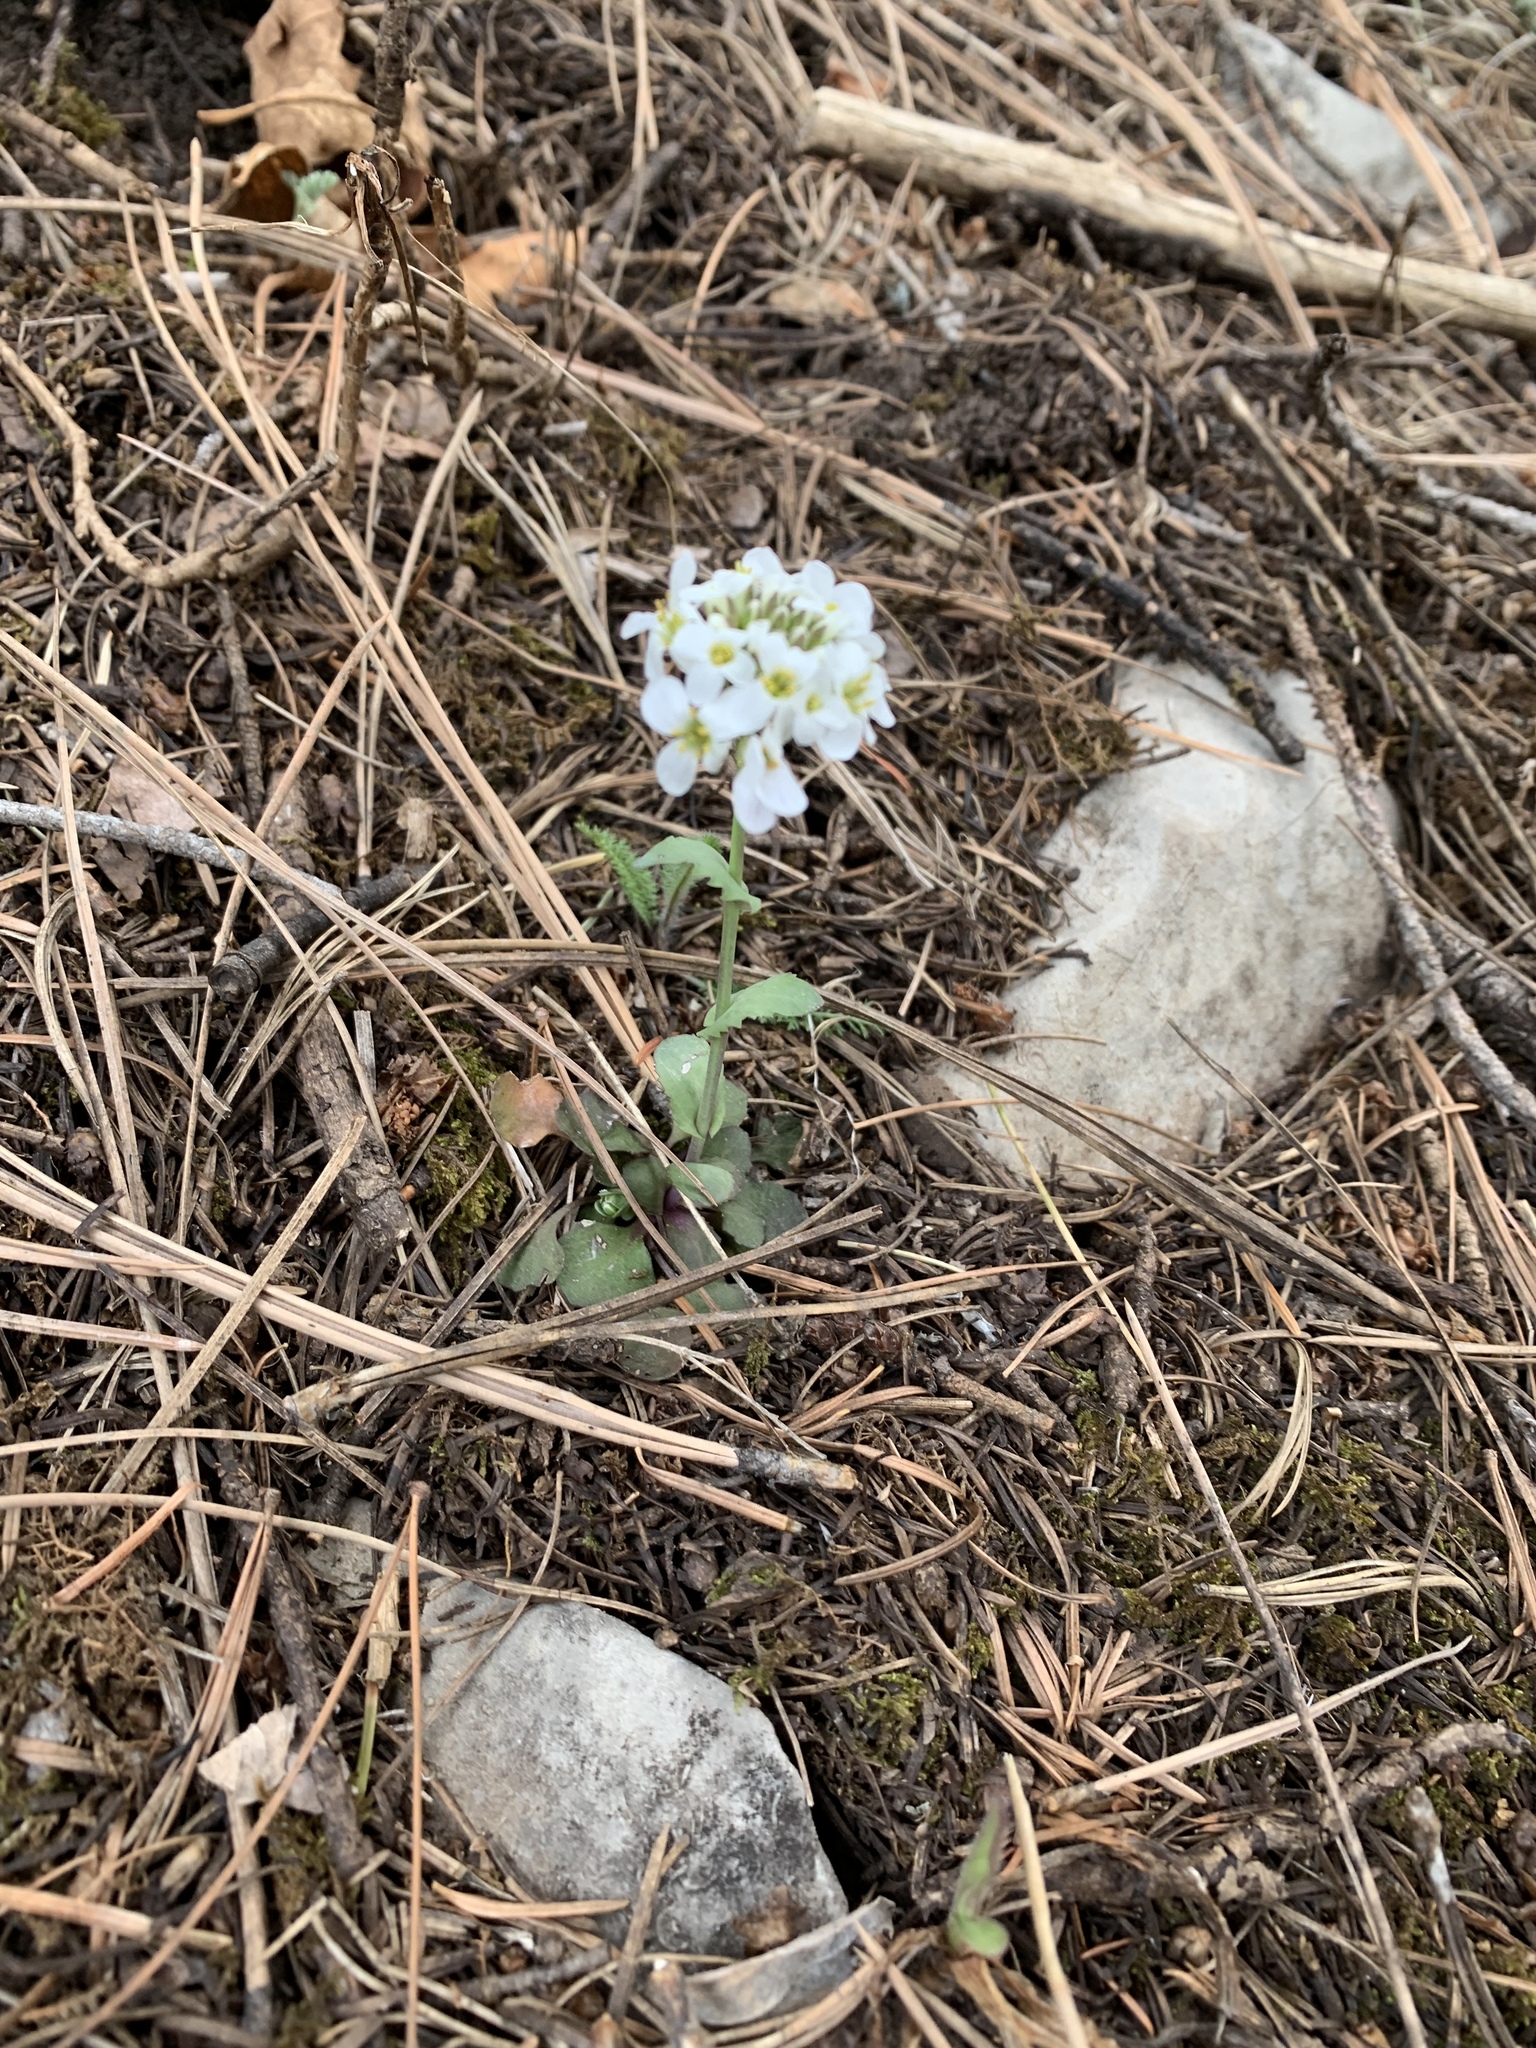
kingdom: Plantae
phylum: Tracheophyta
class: Magnoliopsida
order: Brassicales
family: Brassicaceae
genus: Noccaea
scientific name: Noccaea fendleri
